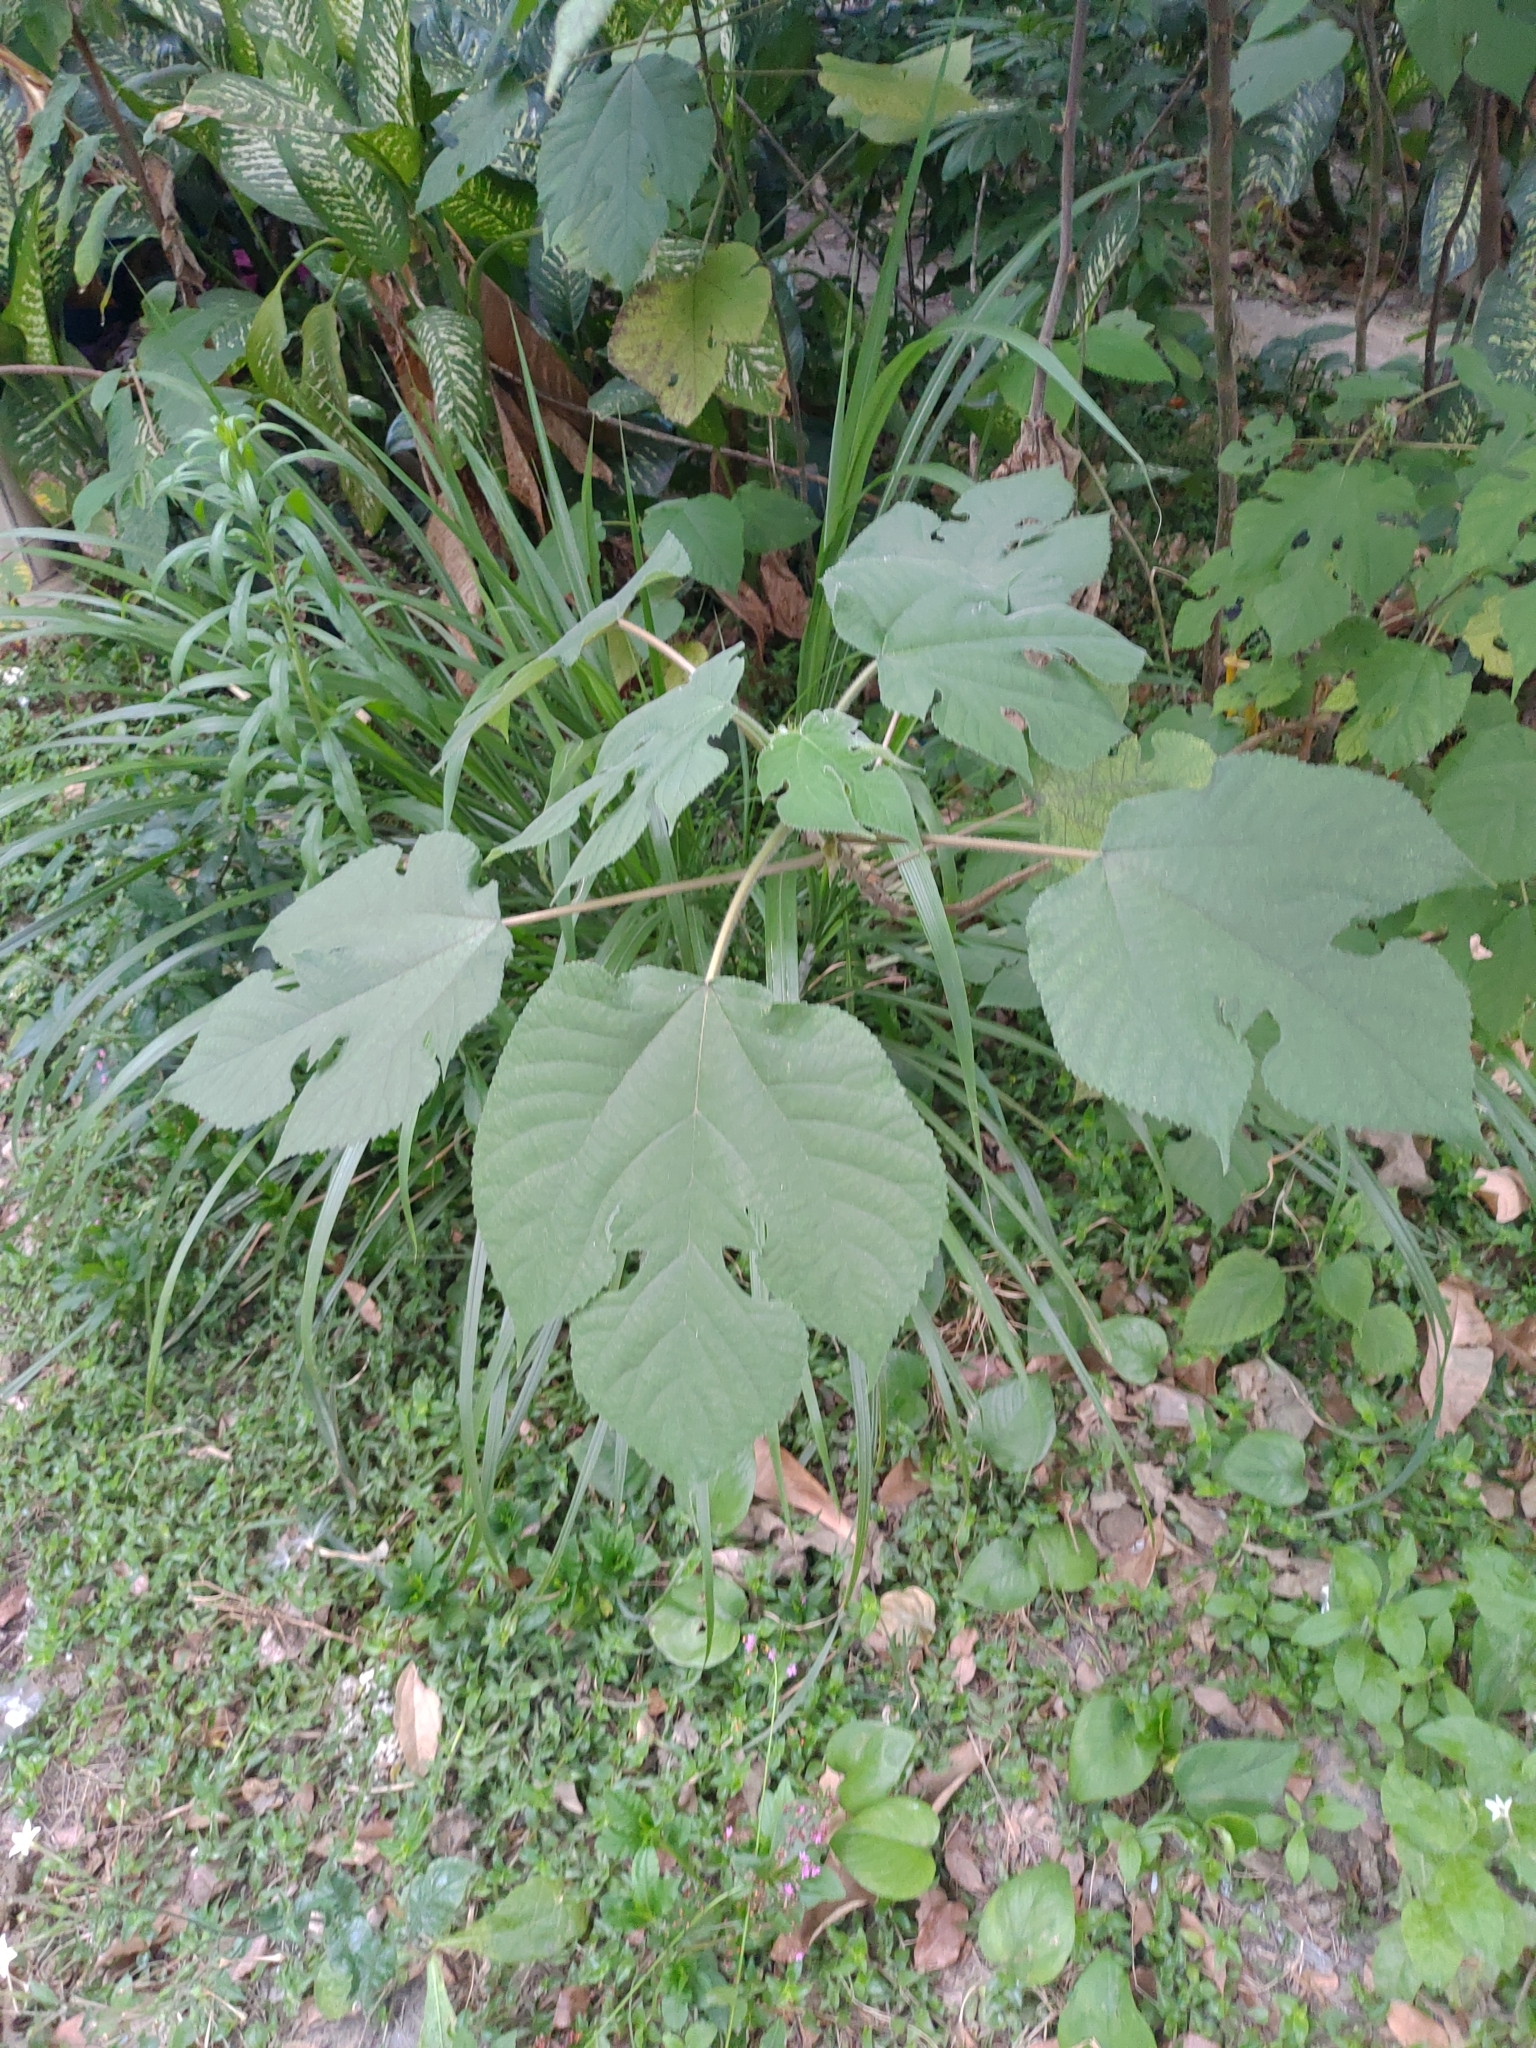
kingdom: Plantae
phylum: Tracheophyta
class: Magnoliopsida
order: Rosales
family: Moraceae
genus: Broussonetia
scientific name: Broussonetia papyrifera
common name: Paper mulberry
